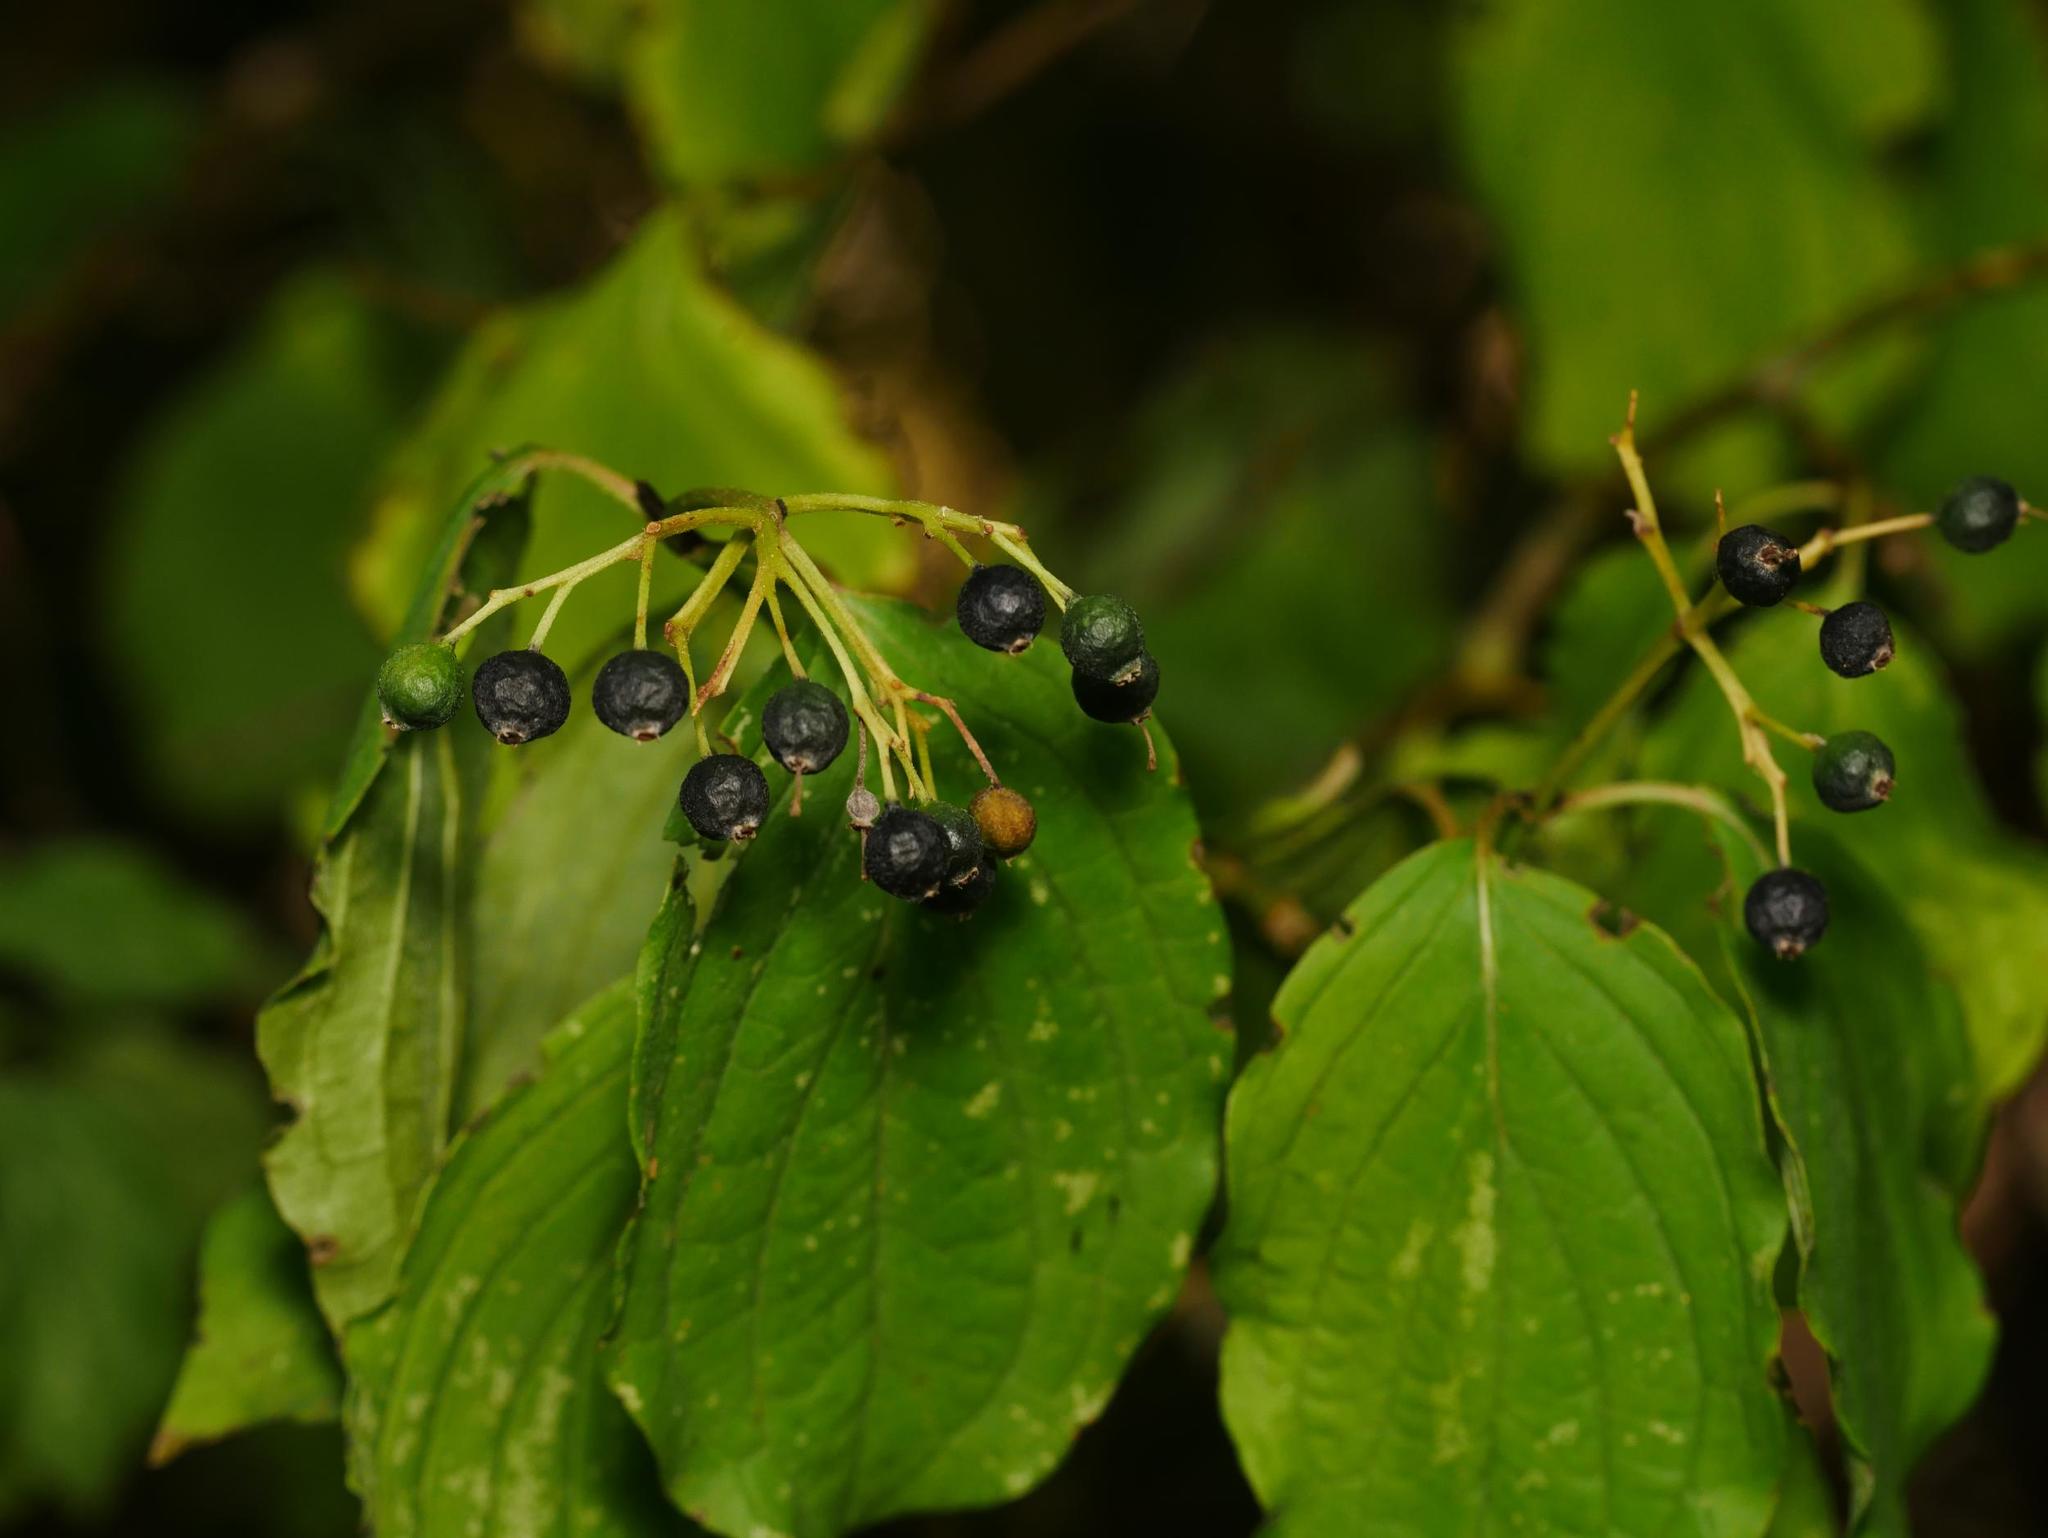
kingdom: Plantae
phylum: Tracheophyta
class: Magnoliopsida
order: Cornales
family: Cornaceae
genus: Cornus
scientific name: Cornus sanguinea
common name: Dogwood
